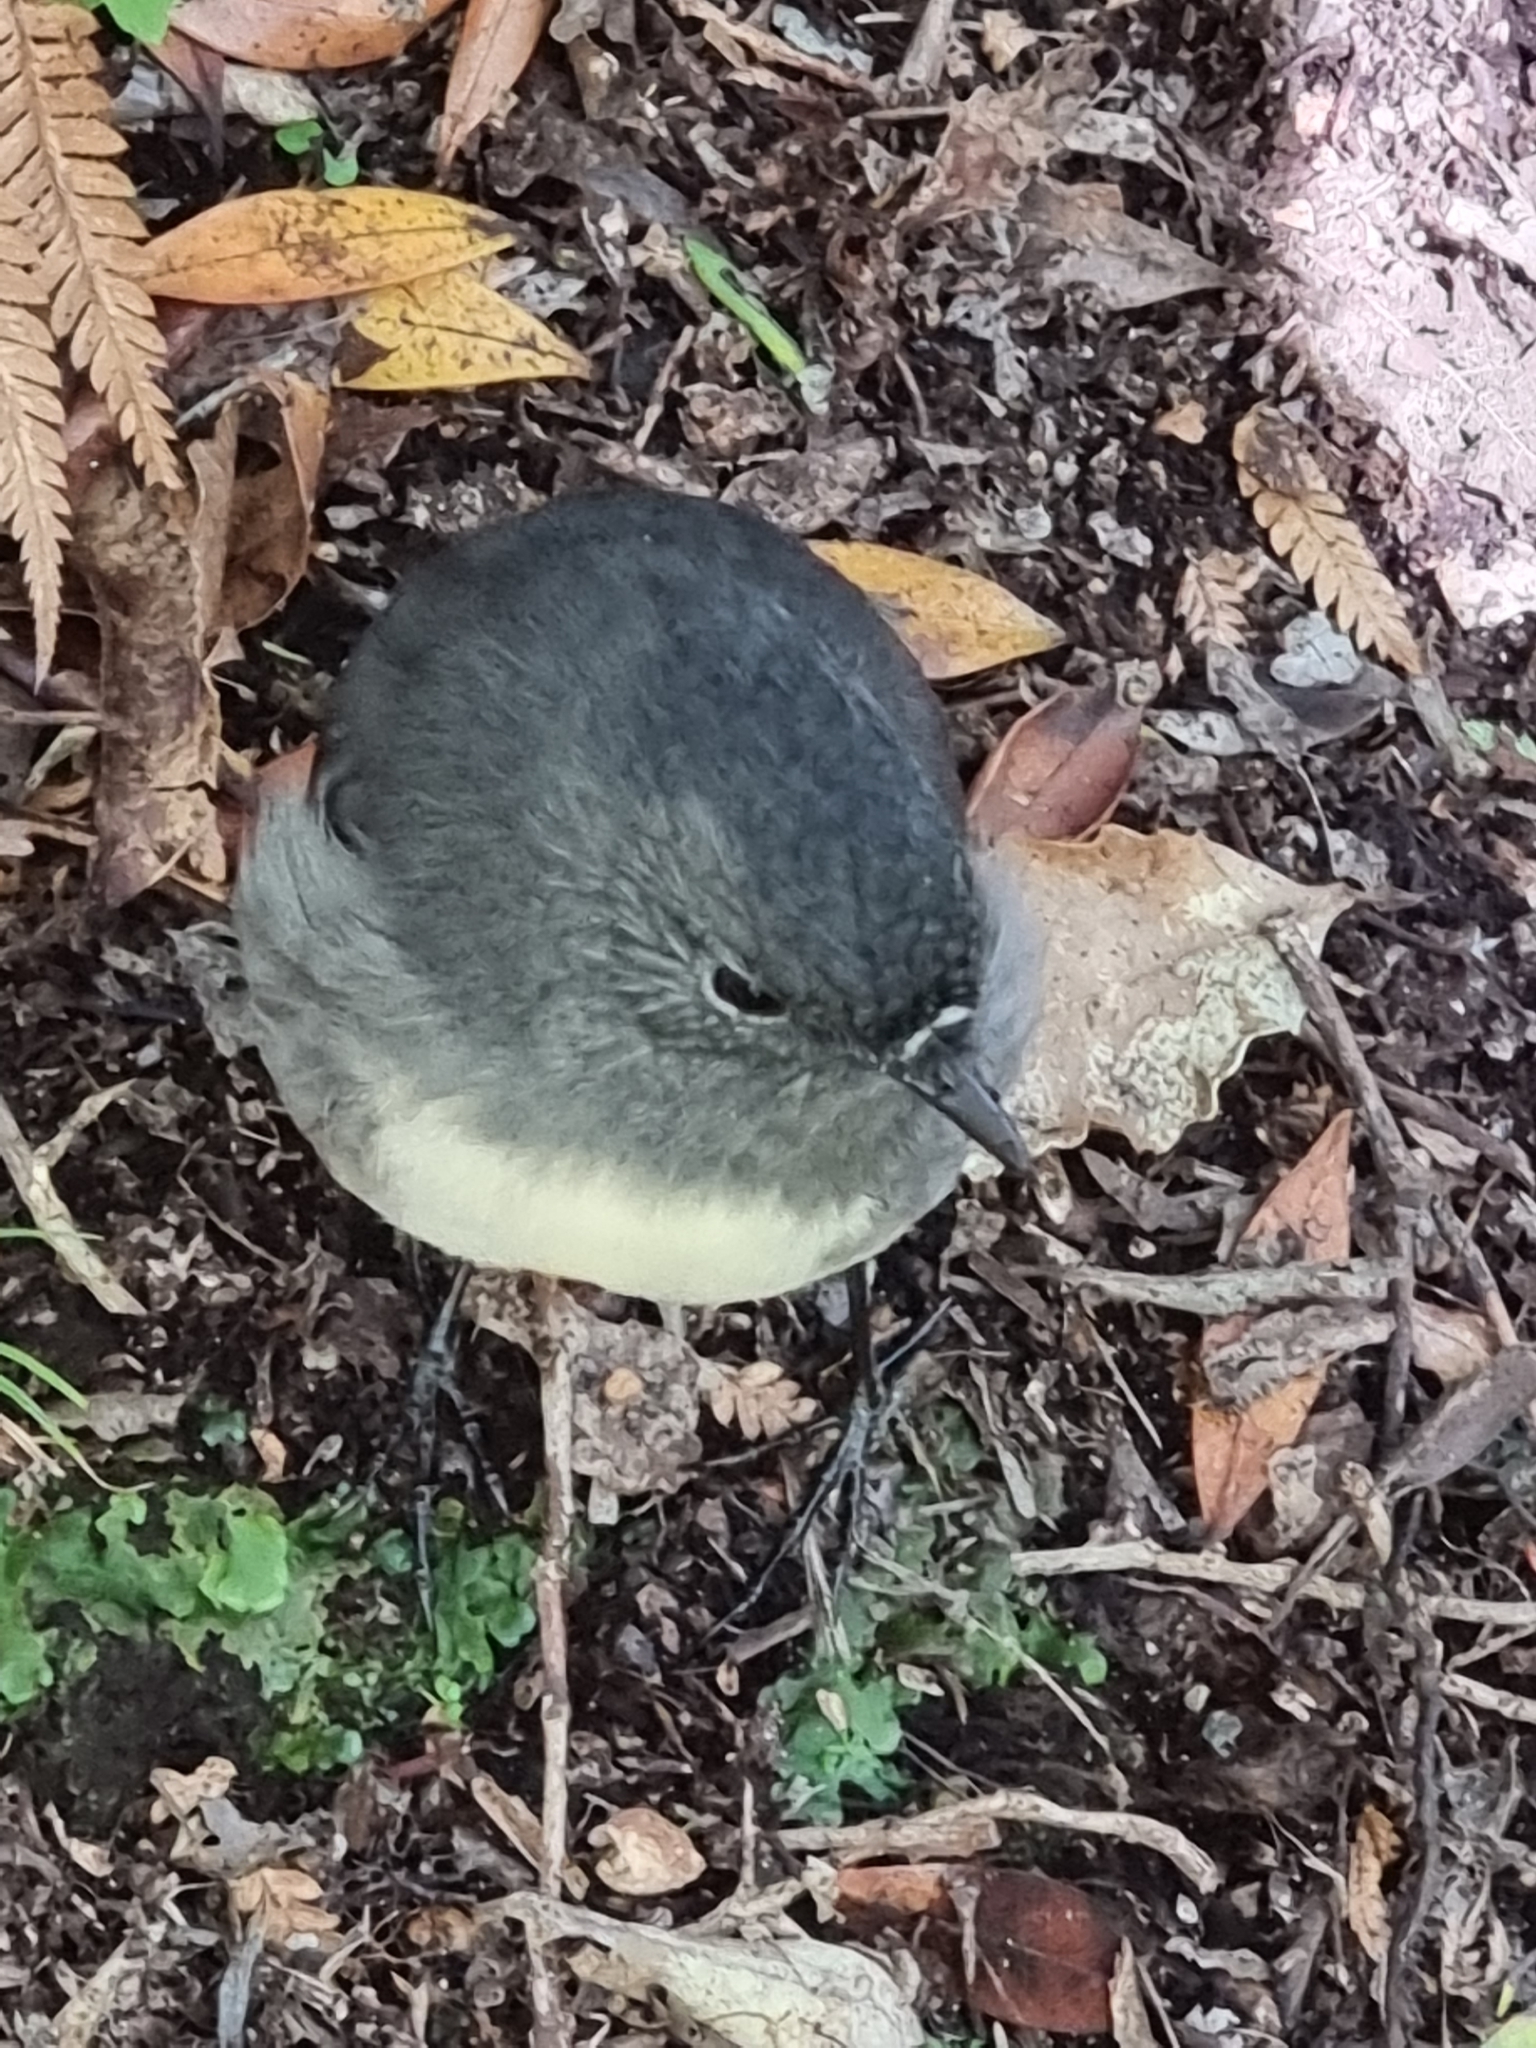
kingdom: Animalia
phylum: Chordata
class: Aves
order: Passeriformes
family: Petroicidae
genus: Petroica
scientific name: Petroica australis
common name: New zealand robin
